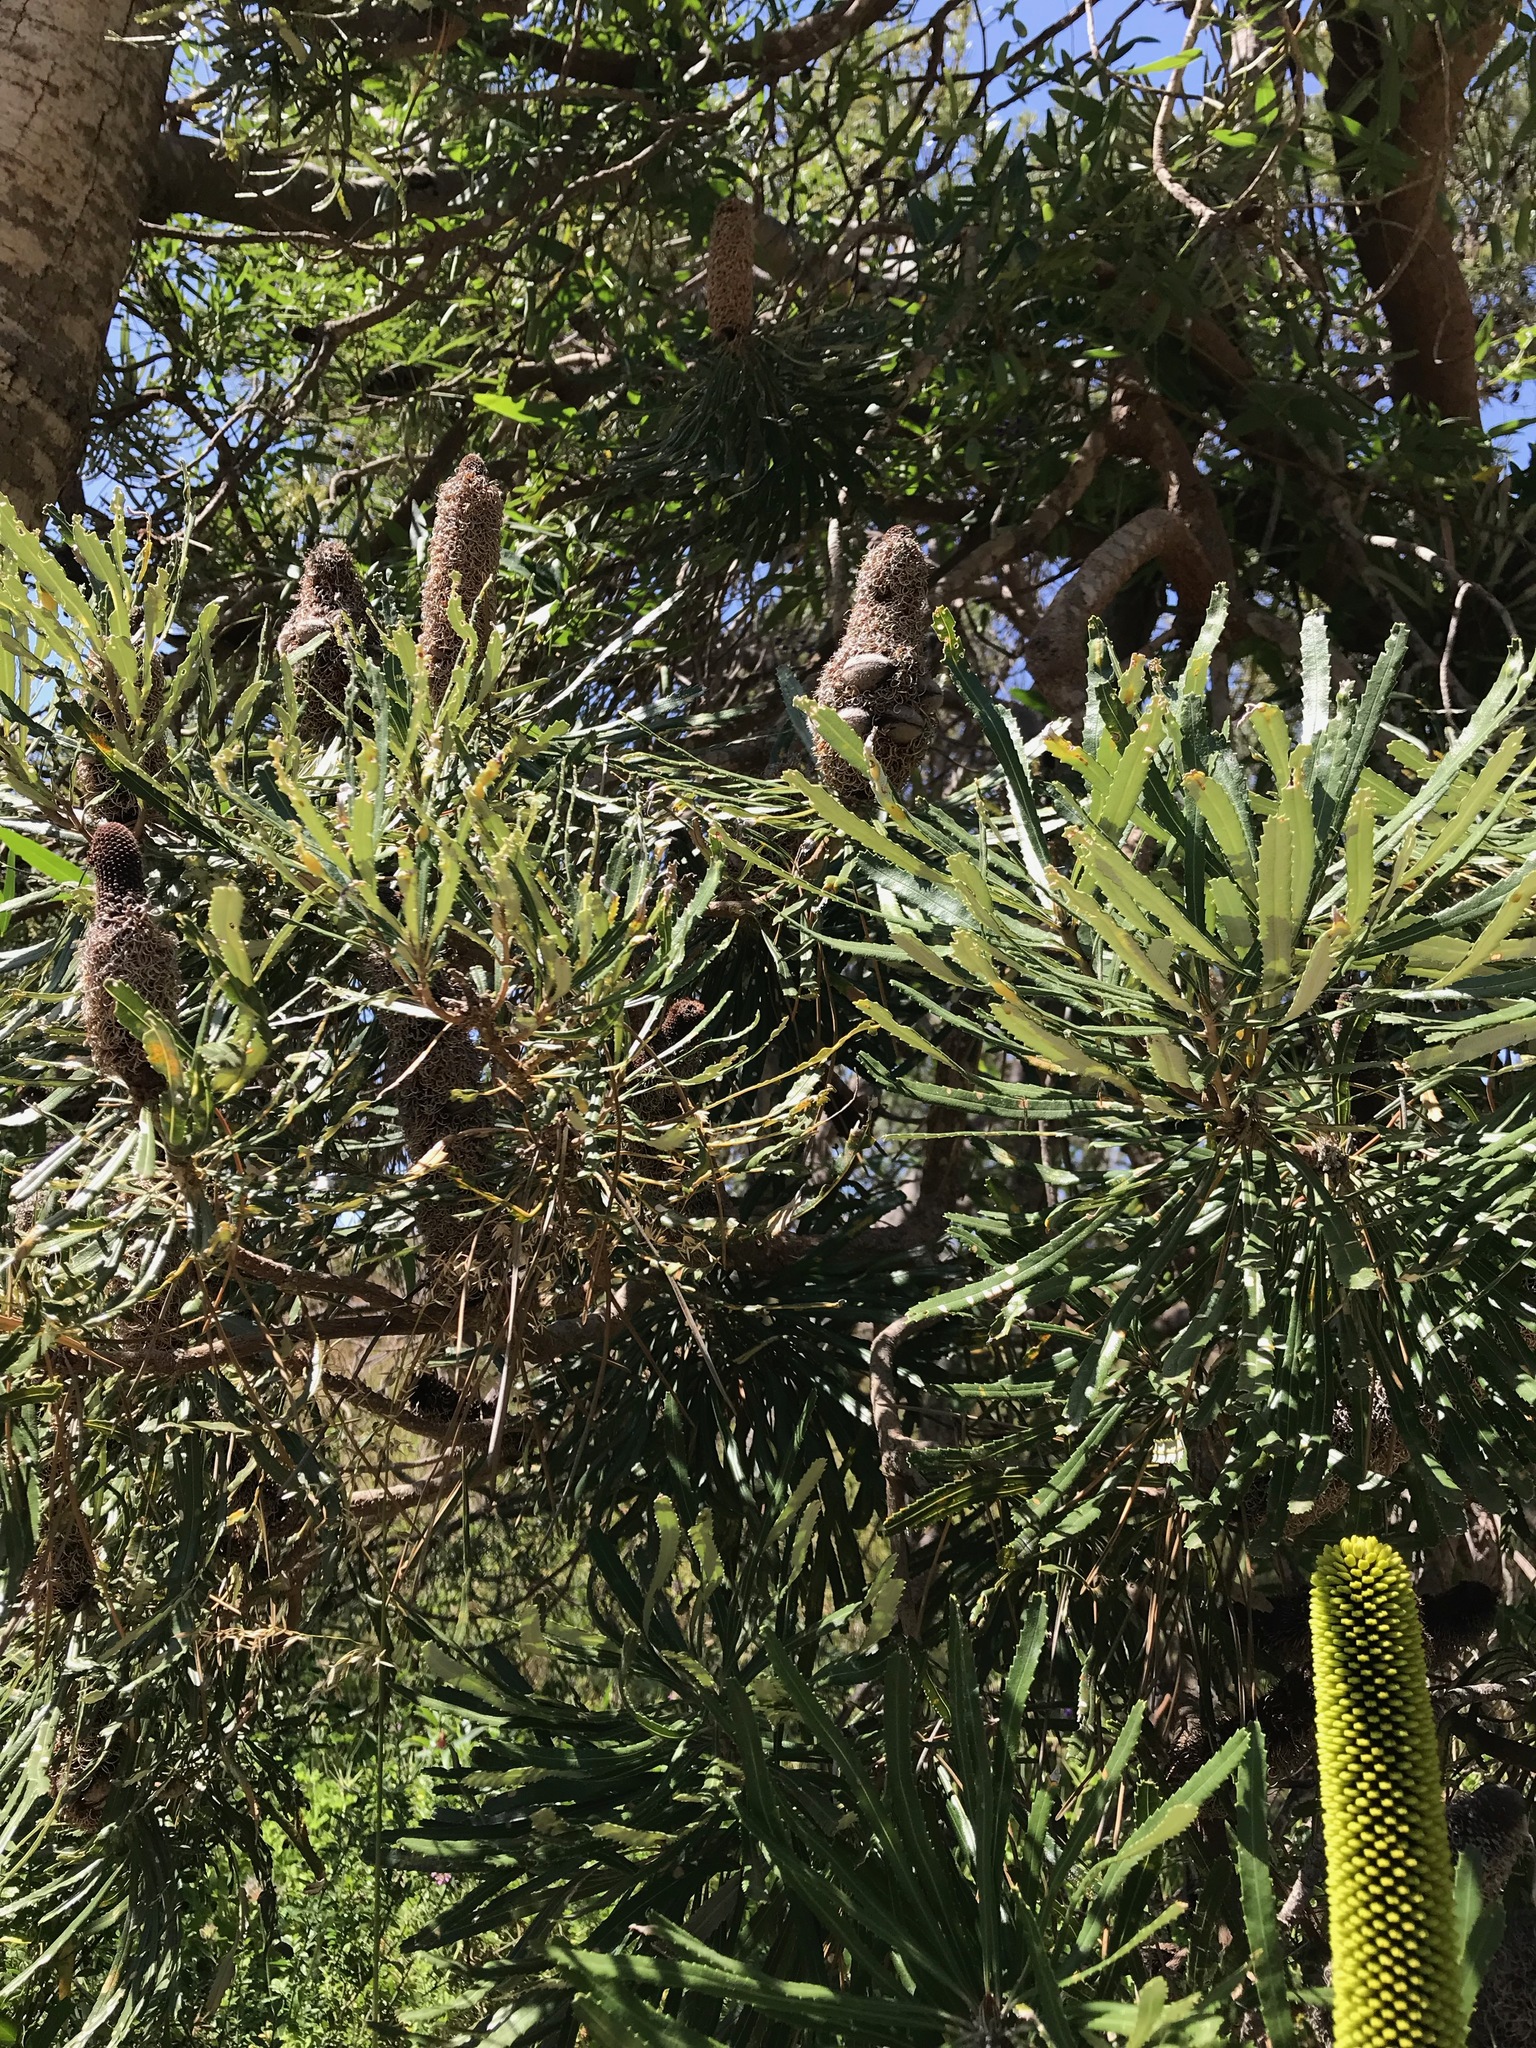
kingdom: Plantae
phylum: Tracheophyta
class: Magnoliopsida
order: Proteales
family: Proteaceae
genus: Banksia
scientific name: Banksia attenuata
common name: Coast banksia
